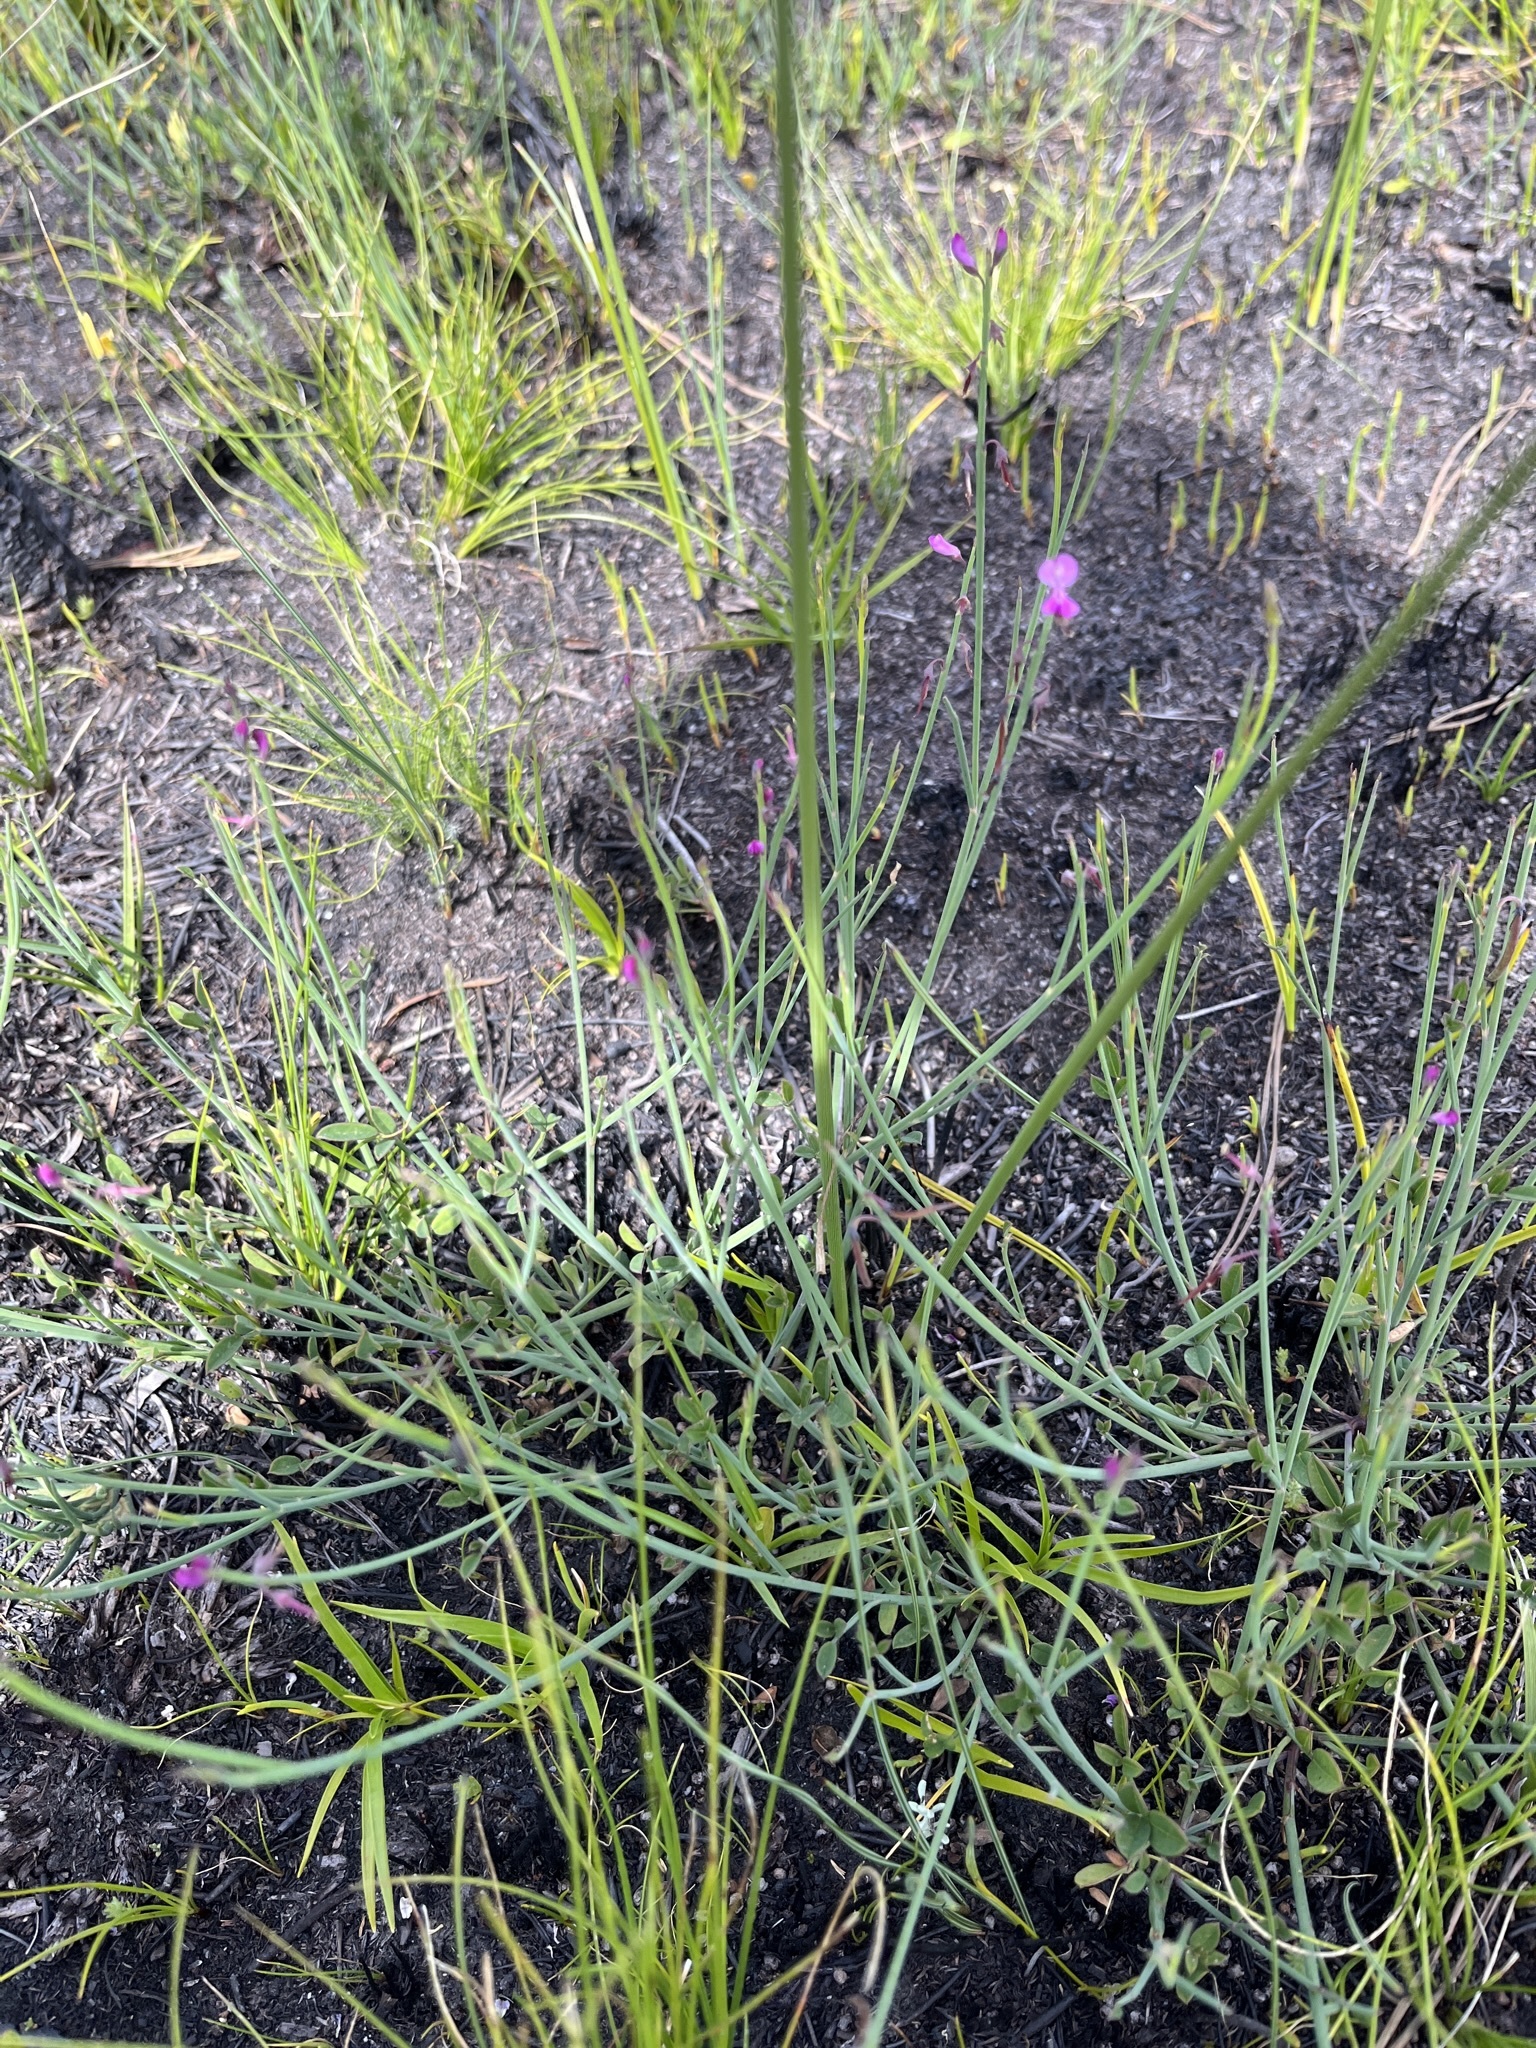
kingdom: Plantae
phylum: Tracheophyta
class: Magnoliopsida
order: Fabales
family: Fabaceae
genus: Indigofera
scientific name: Indigofera ionii
